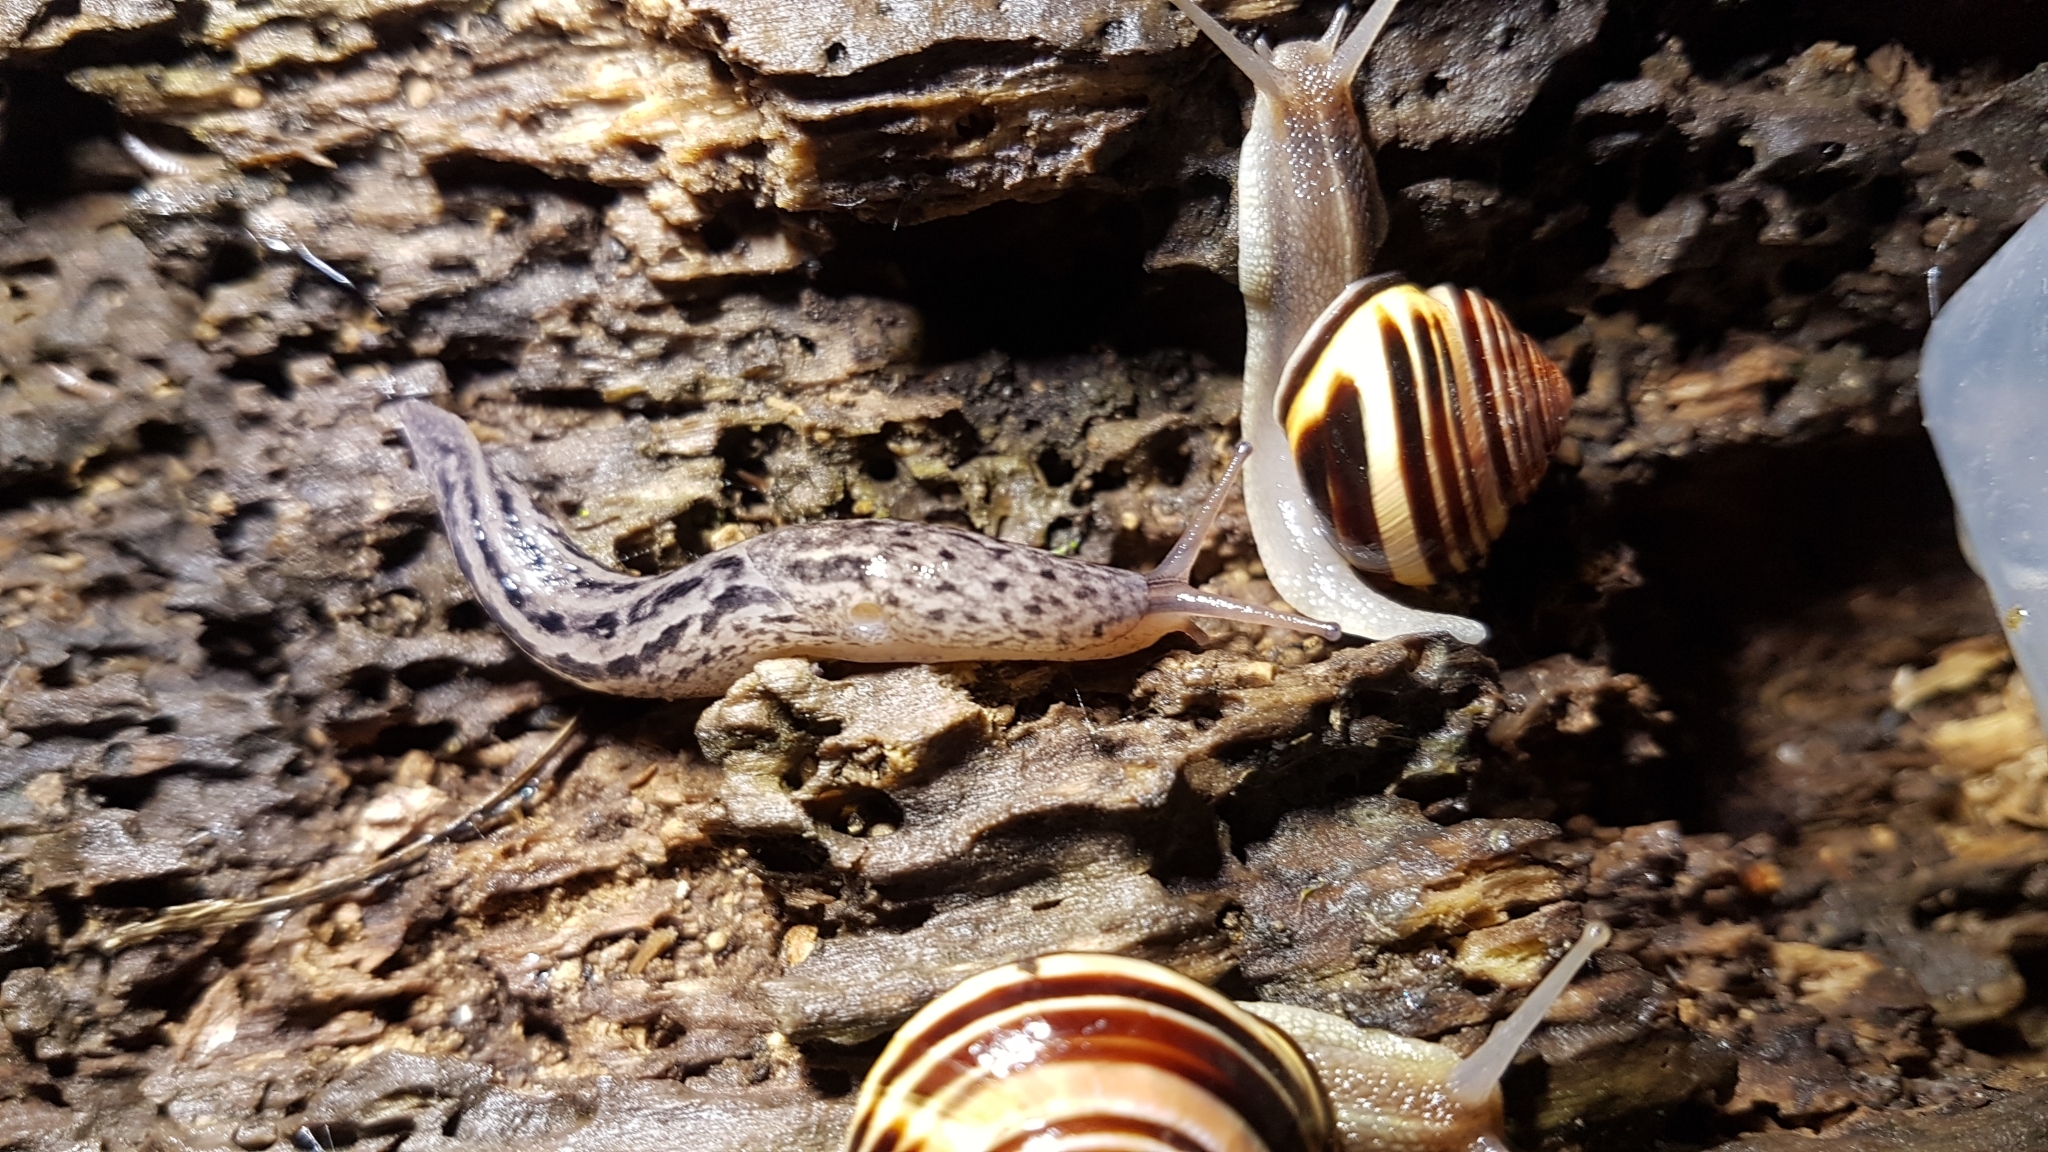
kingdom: Animalia
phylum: Mollusca
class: Gastropoda
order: Stylommatophora
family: Limacidae
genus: Limax
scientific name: Limax maximus
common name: Great grey slug
